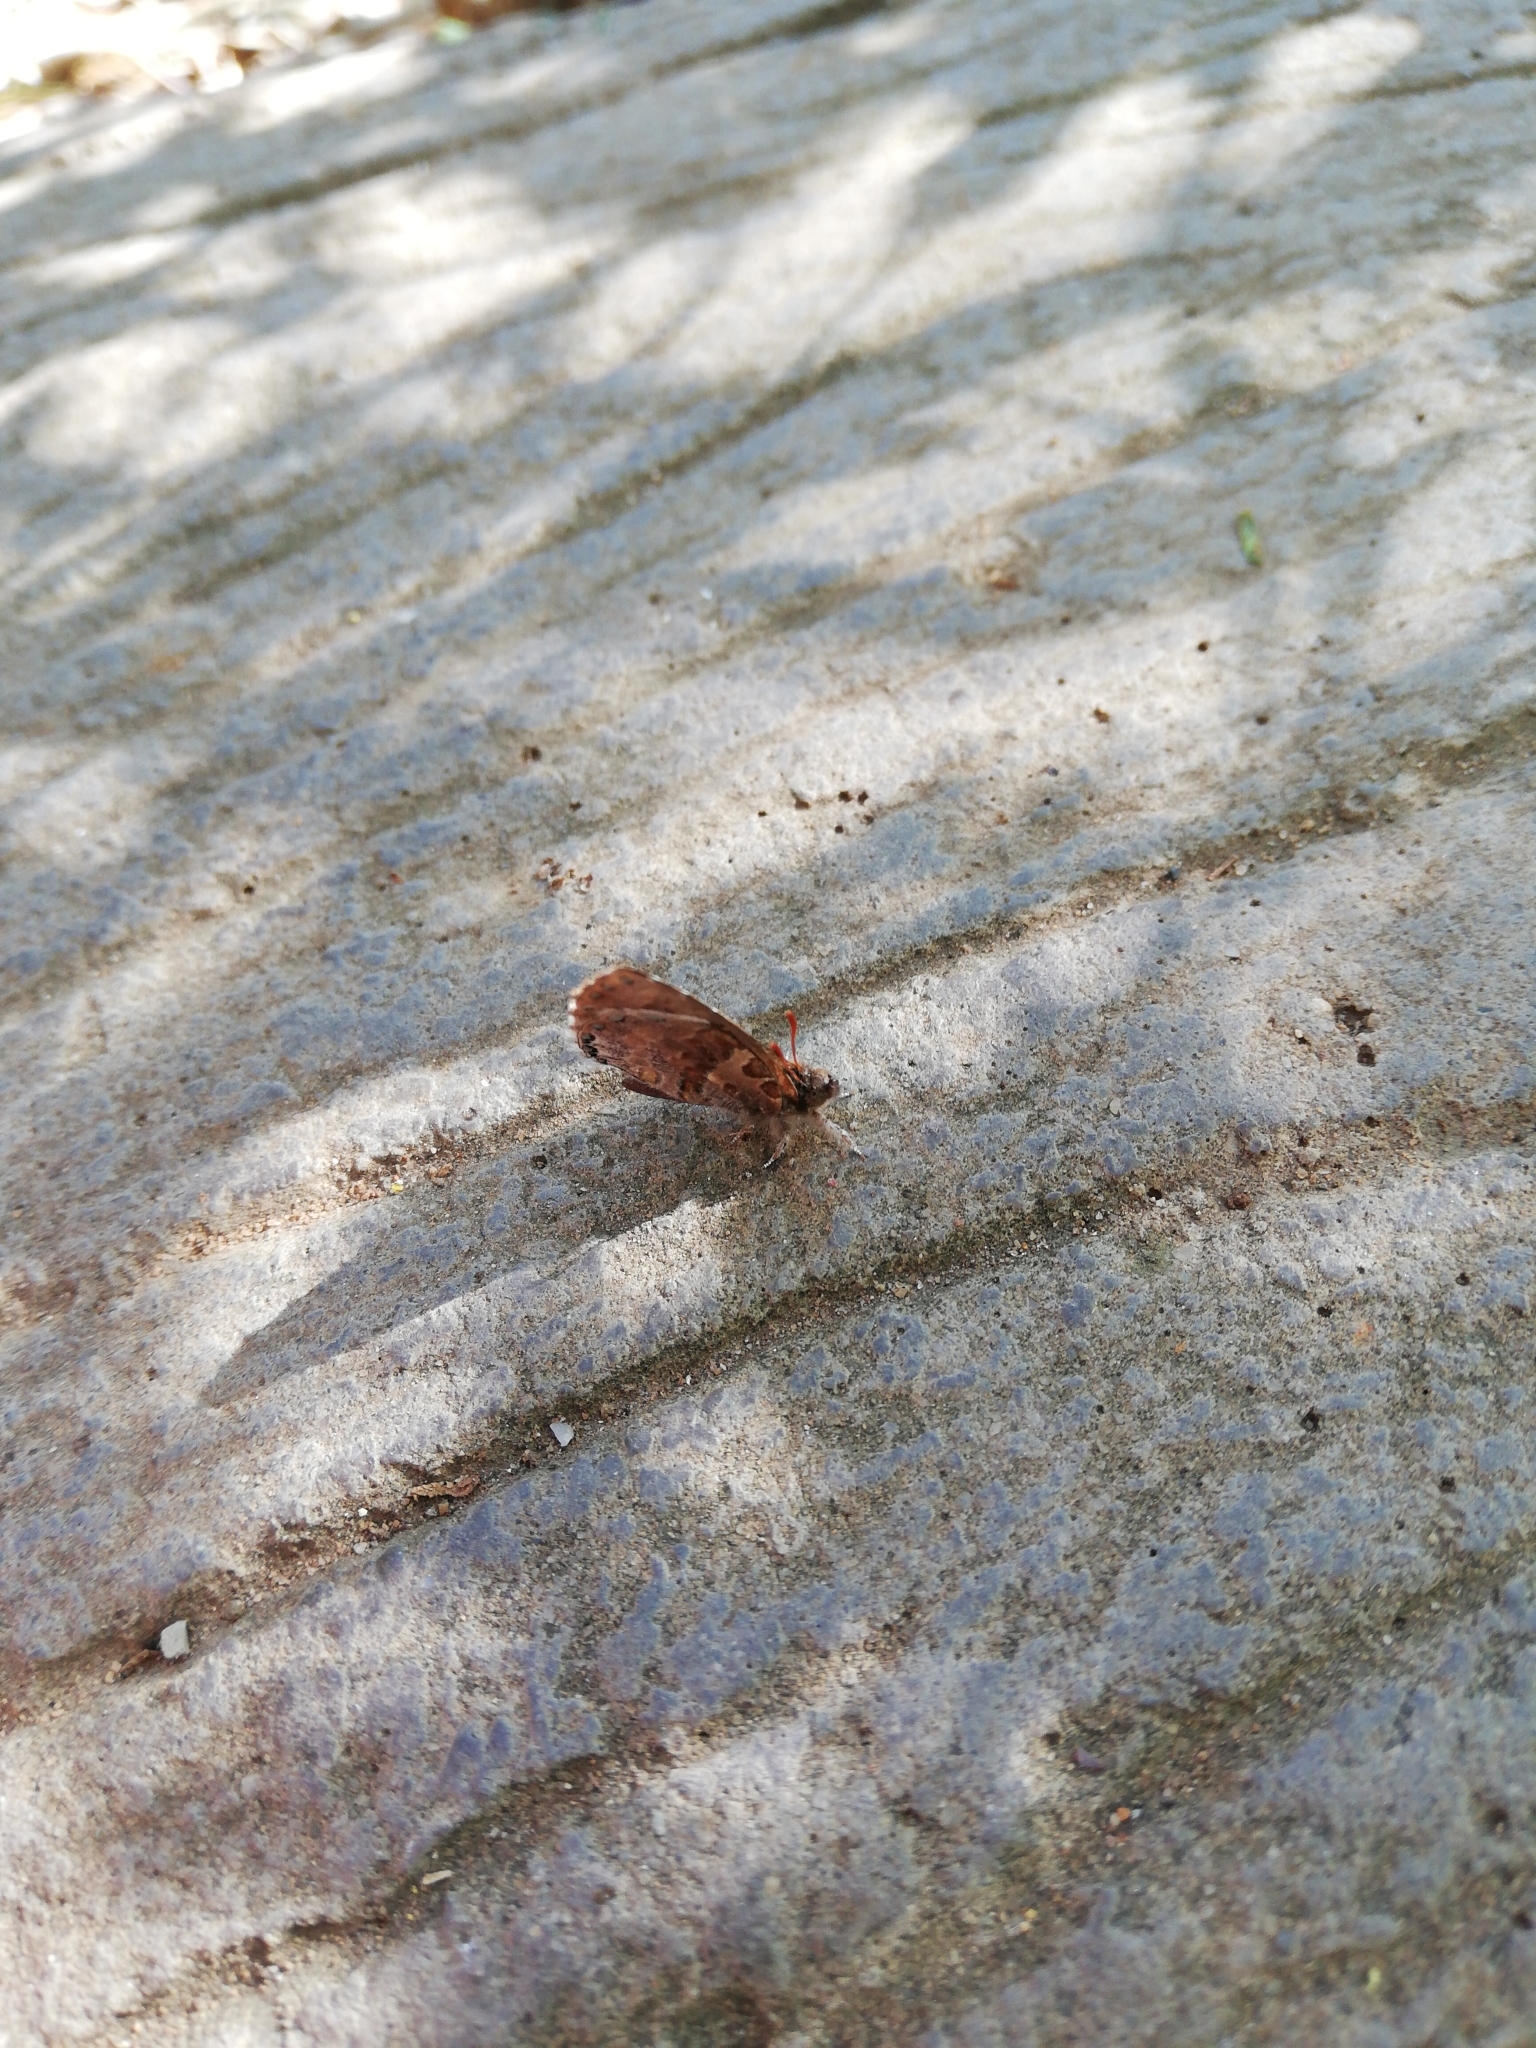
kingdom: Animalia
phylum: Arthropoda
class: Insecta
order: Lepidoptera
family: Lycaenidae
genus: Lachnocnema
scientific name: Lachnocnema durbani
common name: D'urban's woolly legs
